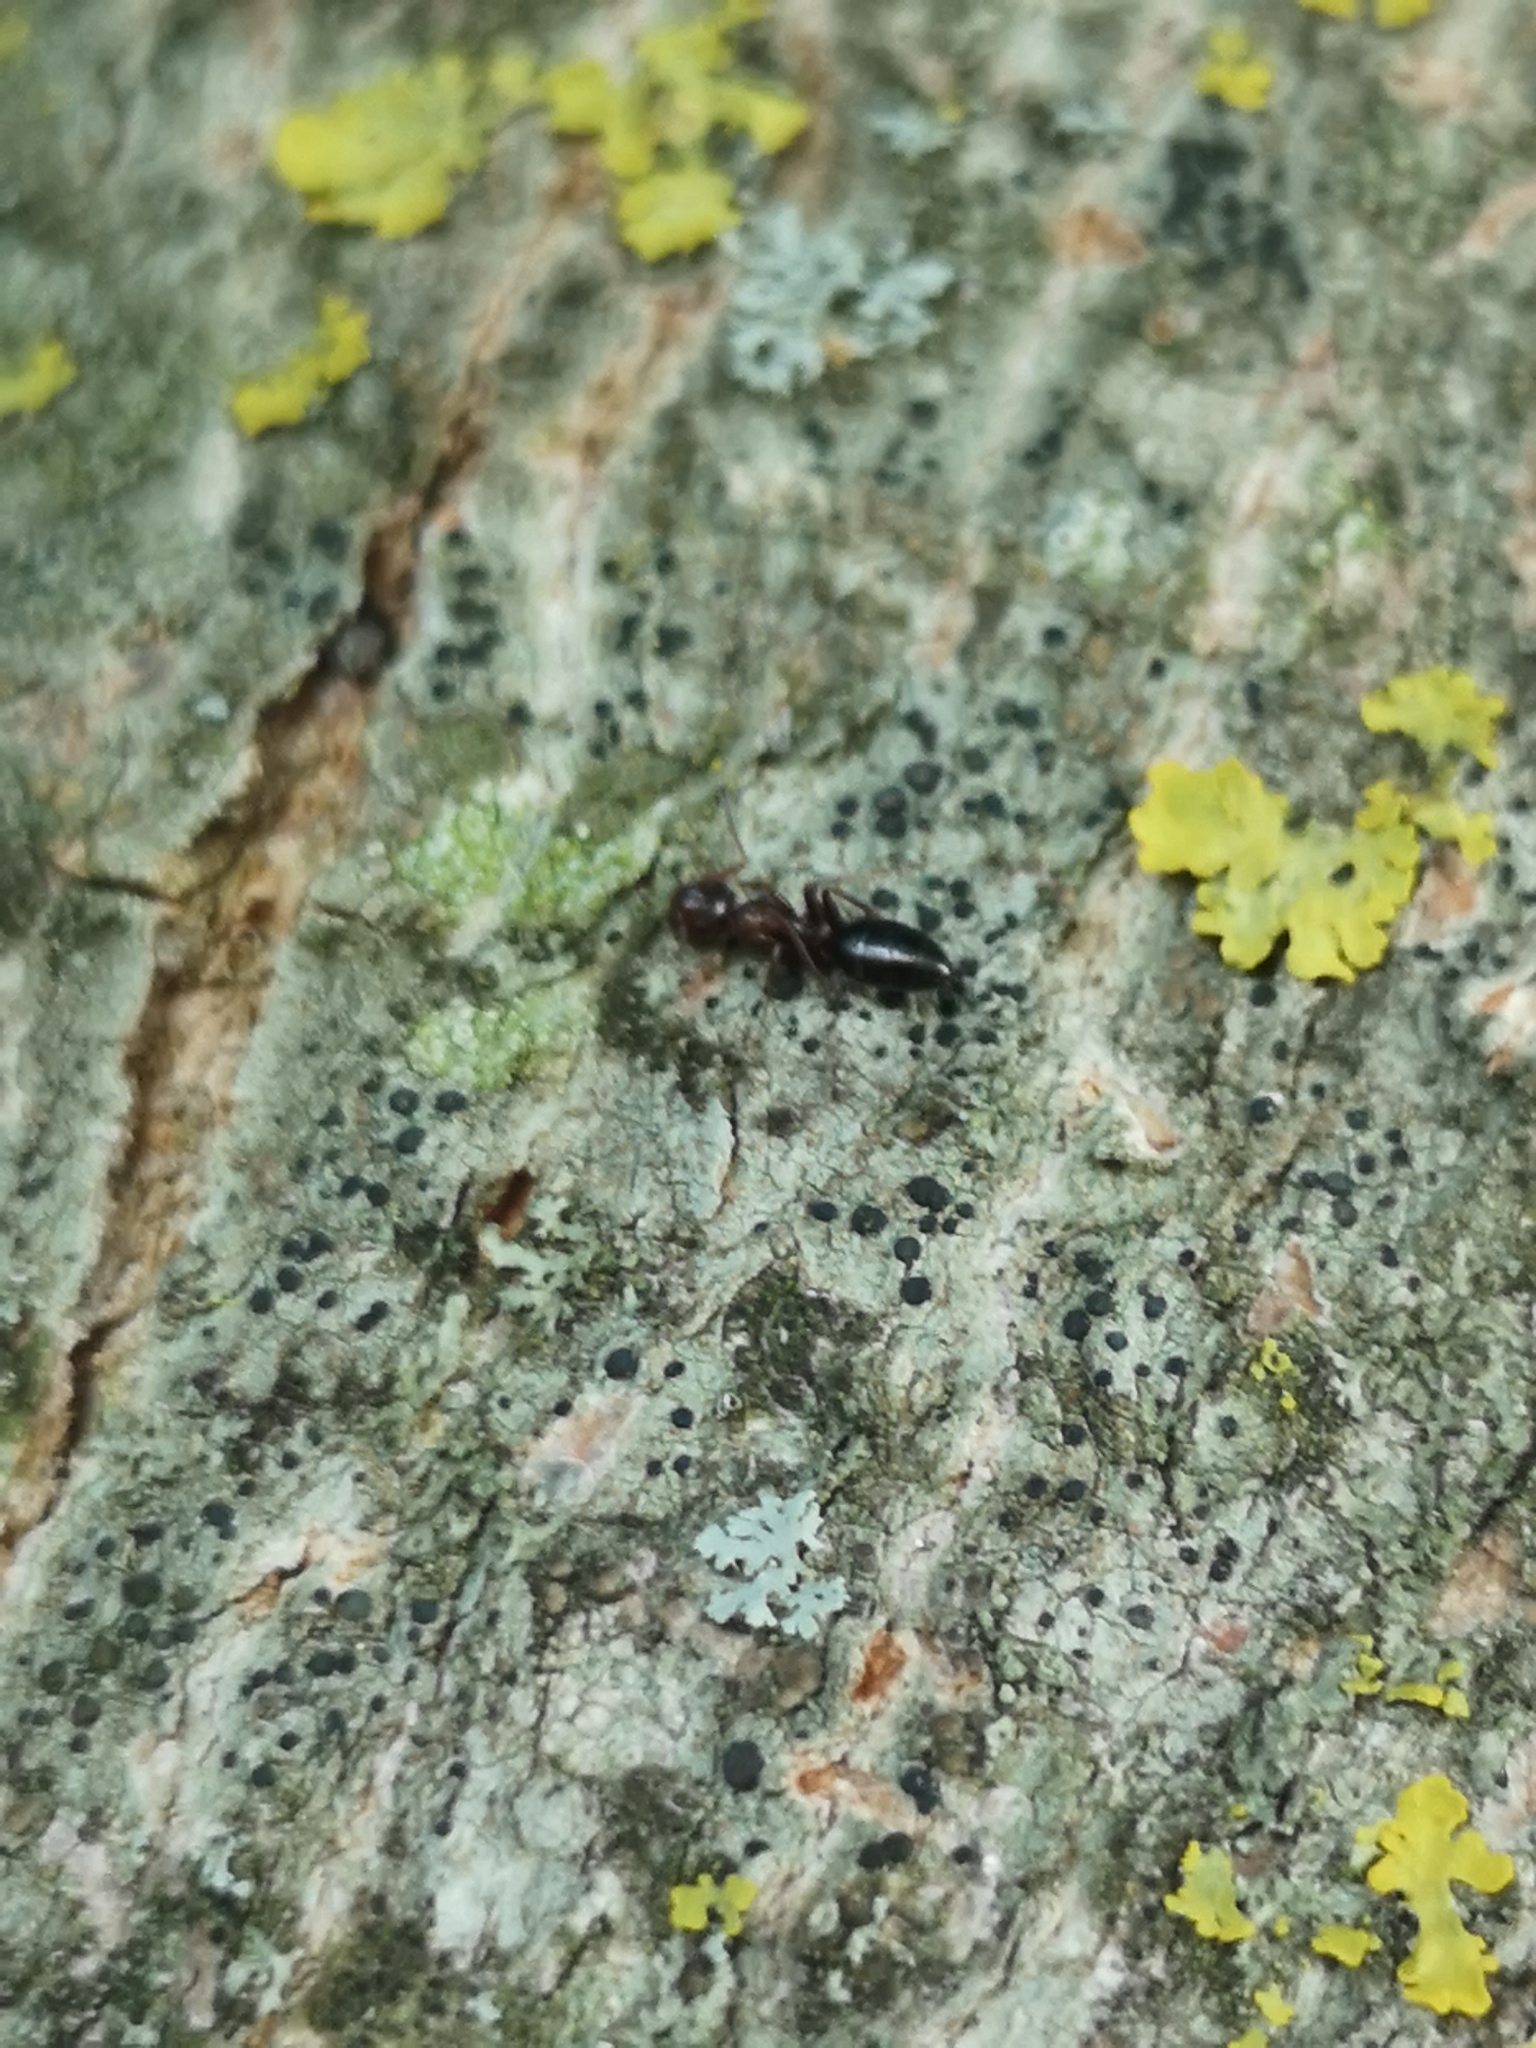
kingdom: Animalia
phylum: Arthropoda
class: Insecta
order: Hymenoptera
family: Formicidae
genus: Camponotus
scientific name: Camponotus truncatus
